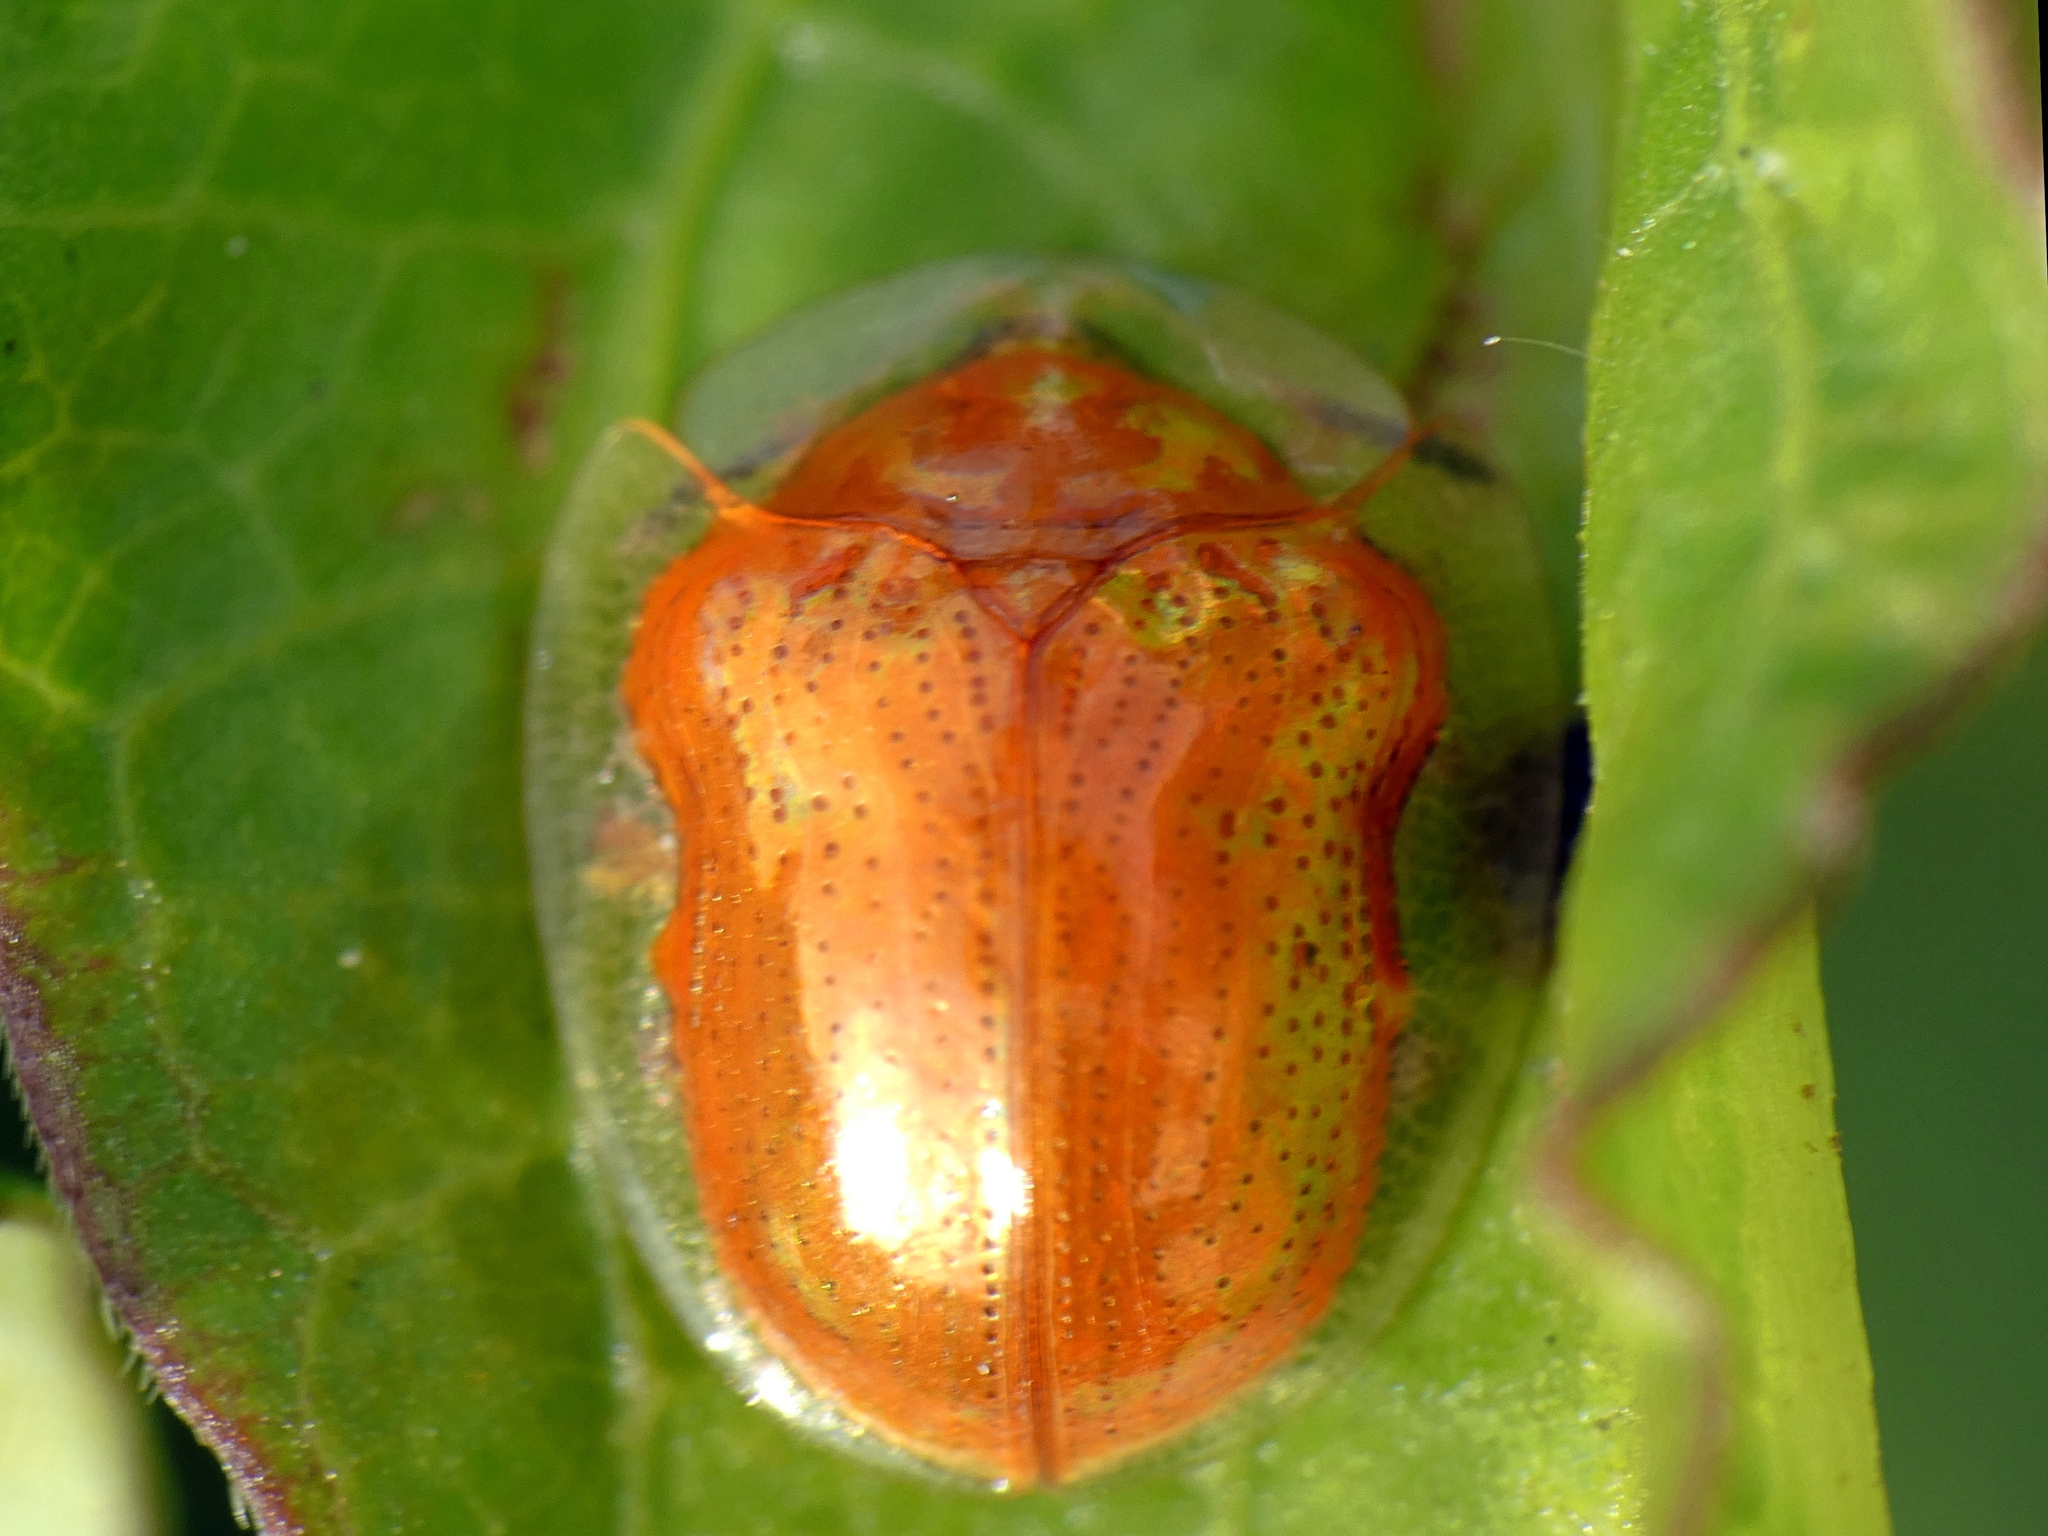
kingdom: Animalia
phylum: Arthropoda
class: Insecta
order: Coleoptera
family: Chrysomelidae
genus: Charidotella
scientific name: Charidotella sexpunctata
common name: Golden tortoise beetle
